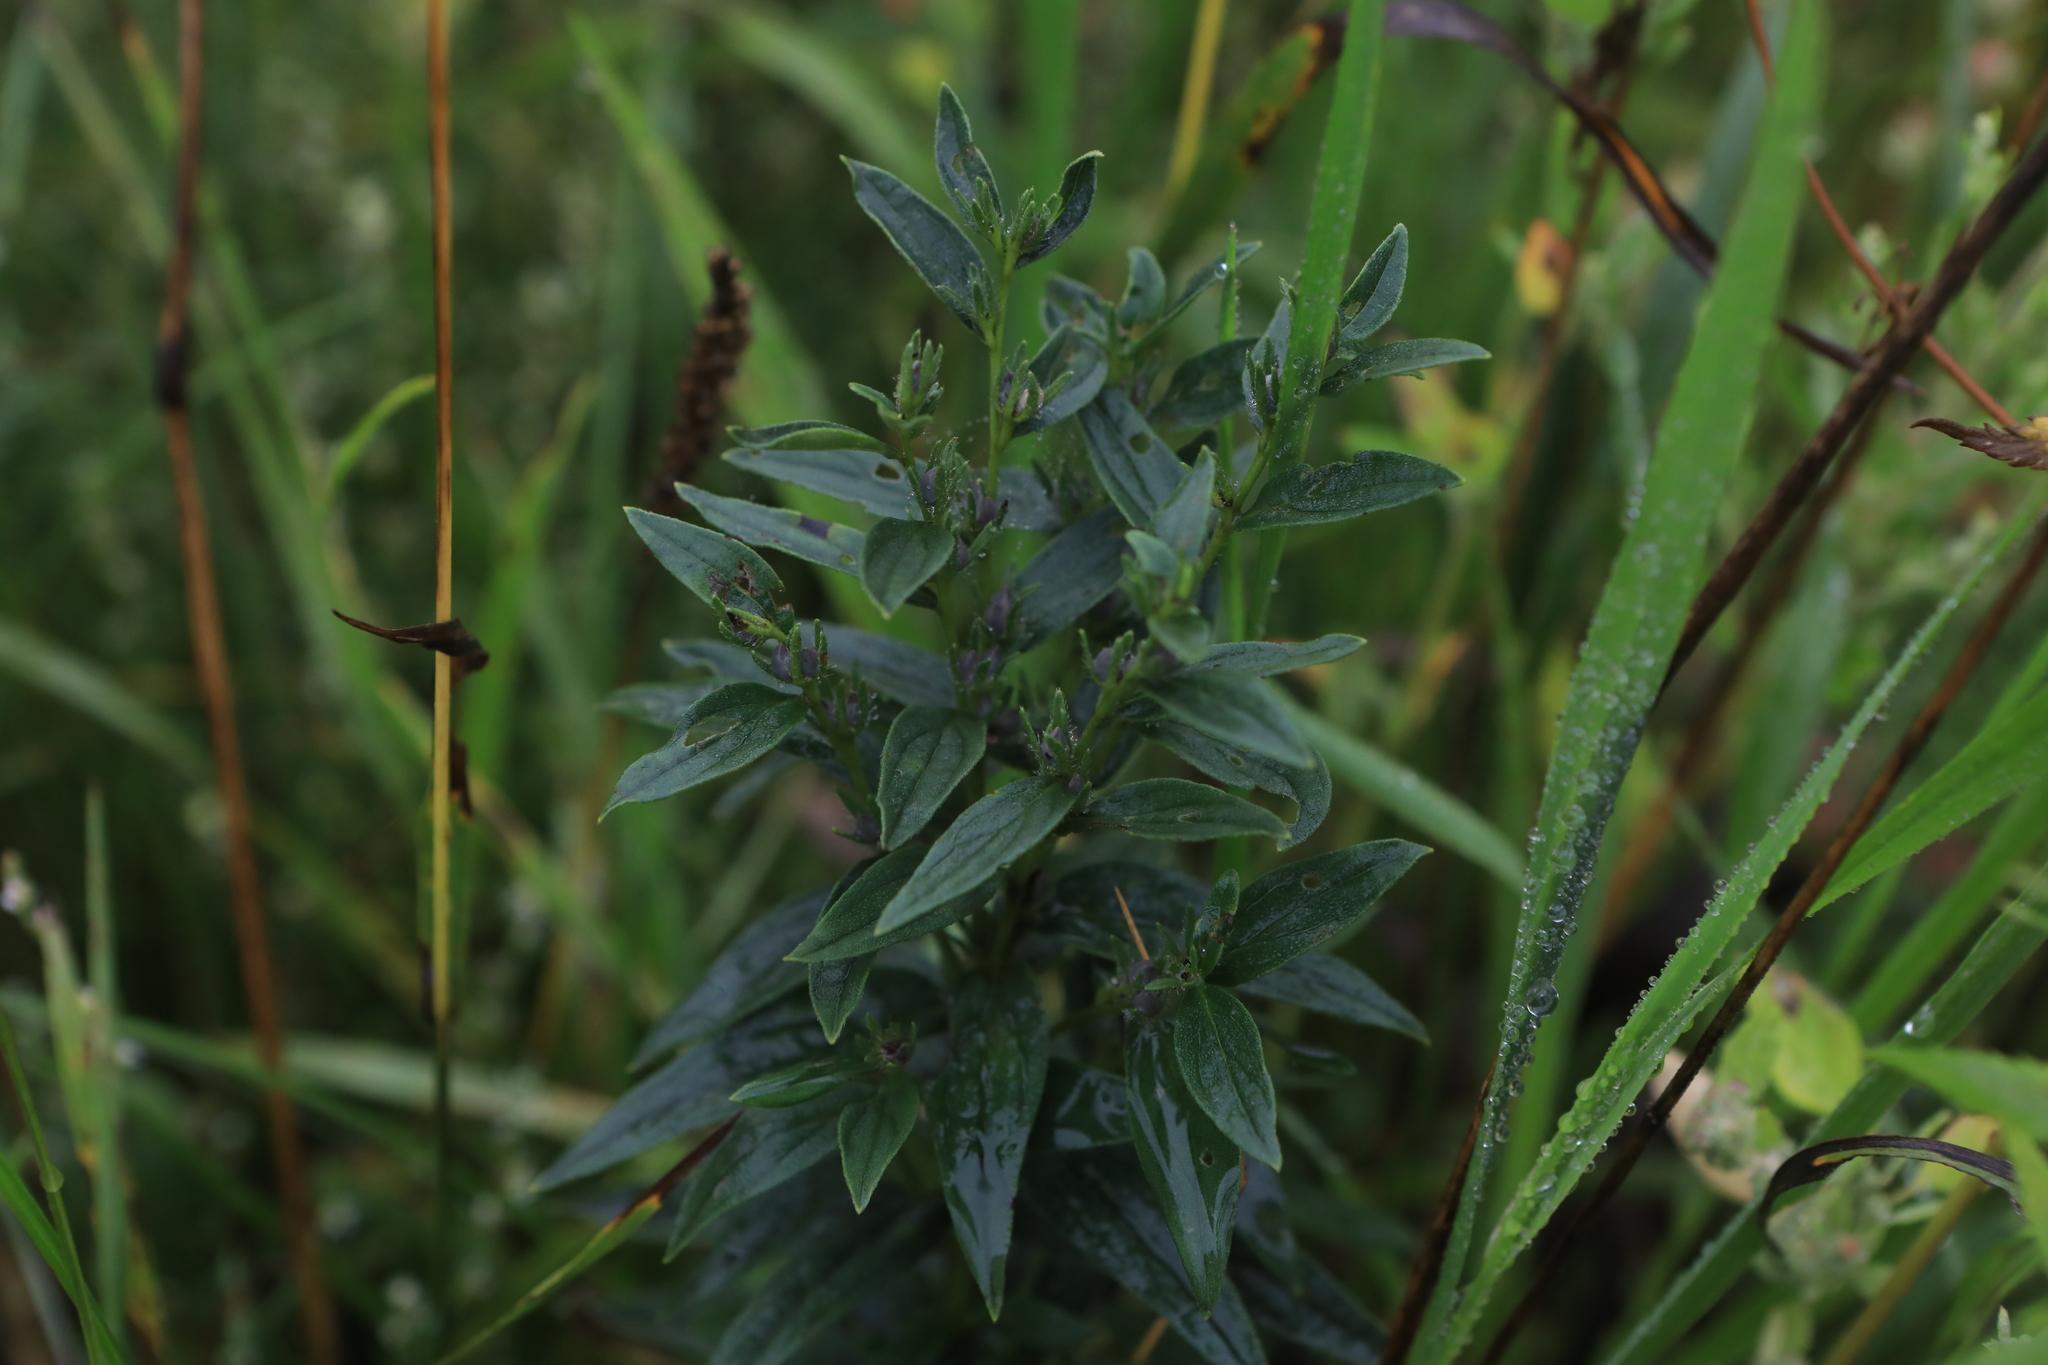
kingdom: Plantae
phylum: Tracheophyta
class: Magnoliopsida
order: Boraginales
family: Boraginaceae
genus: Lithospermum
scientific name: Lithospermum officinale
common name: Common gromwell
